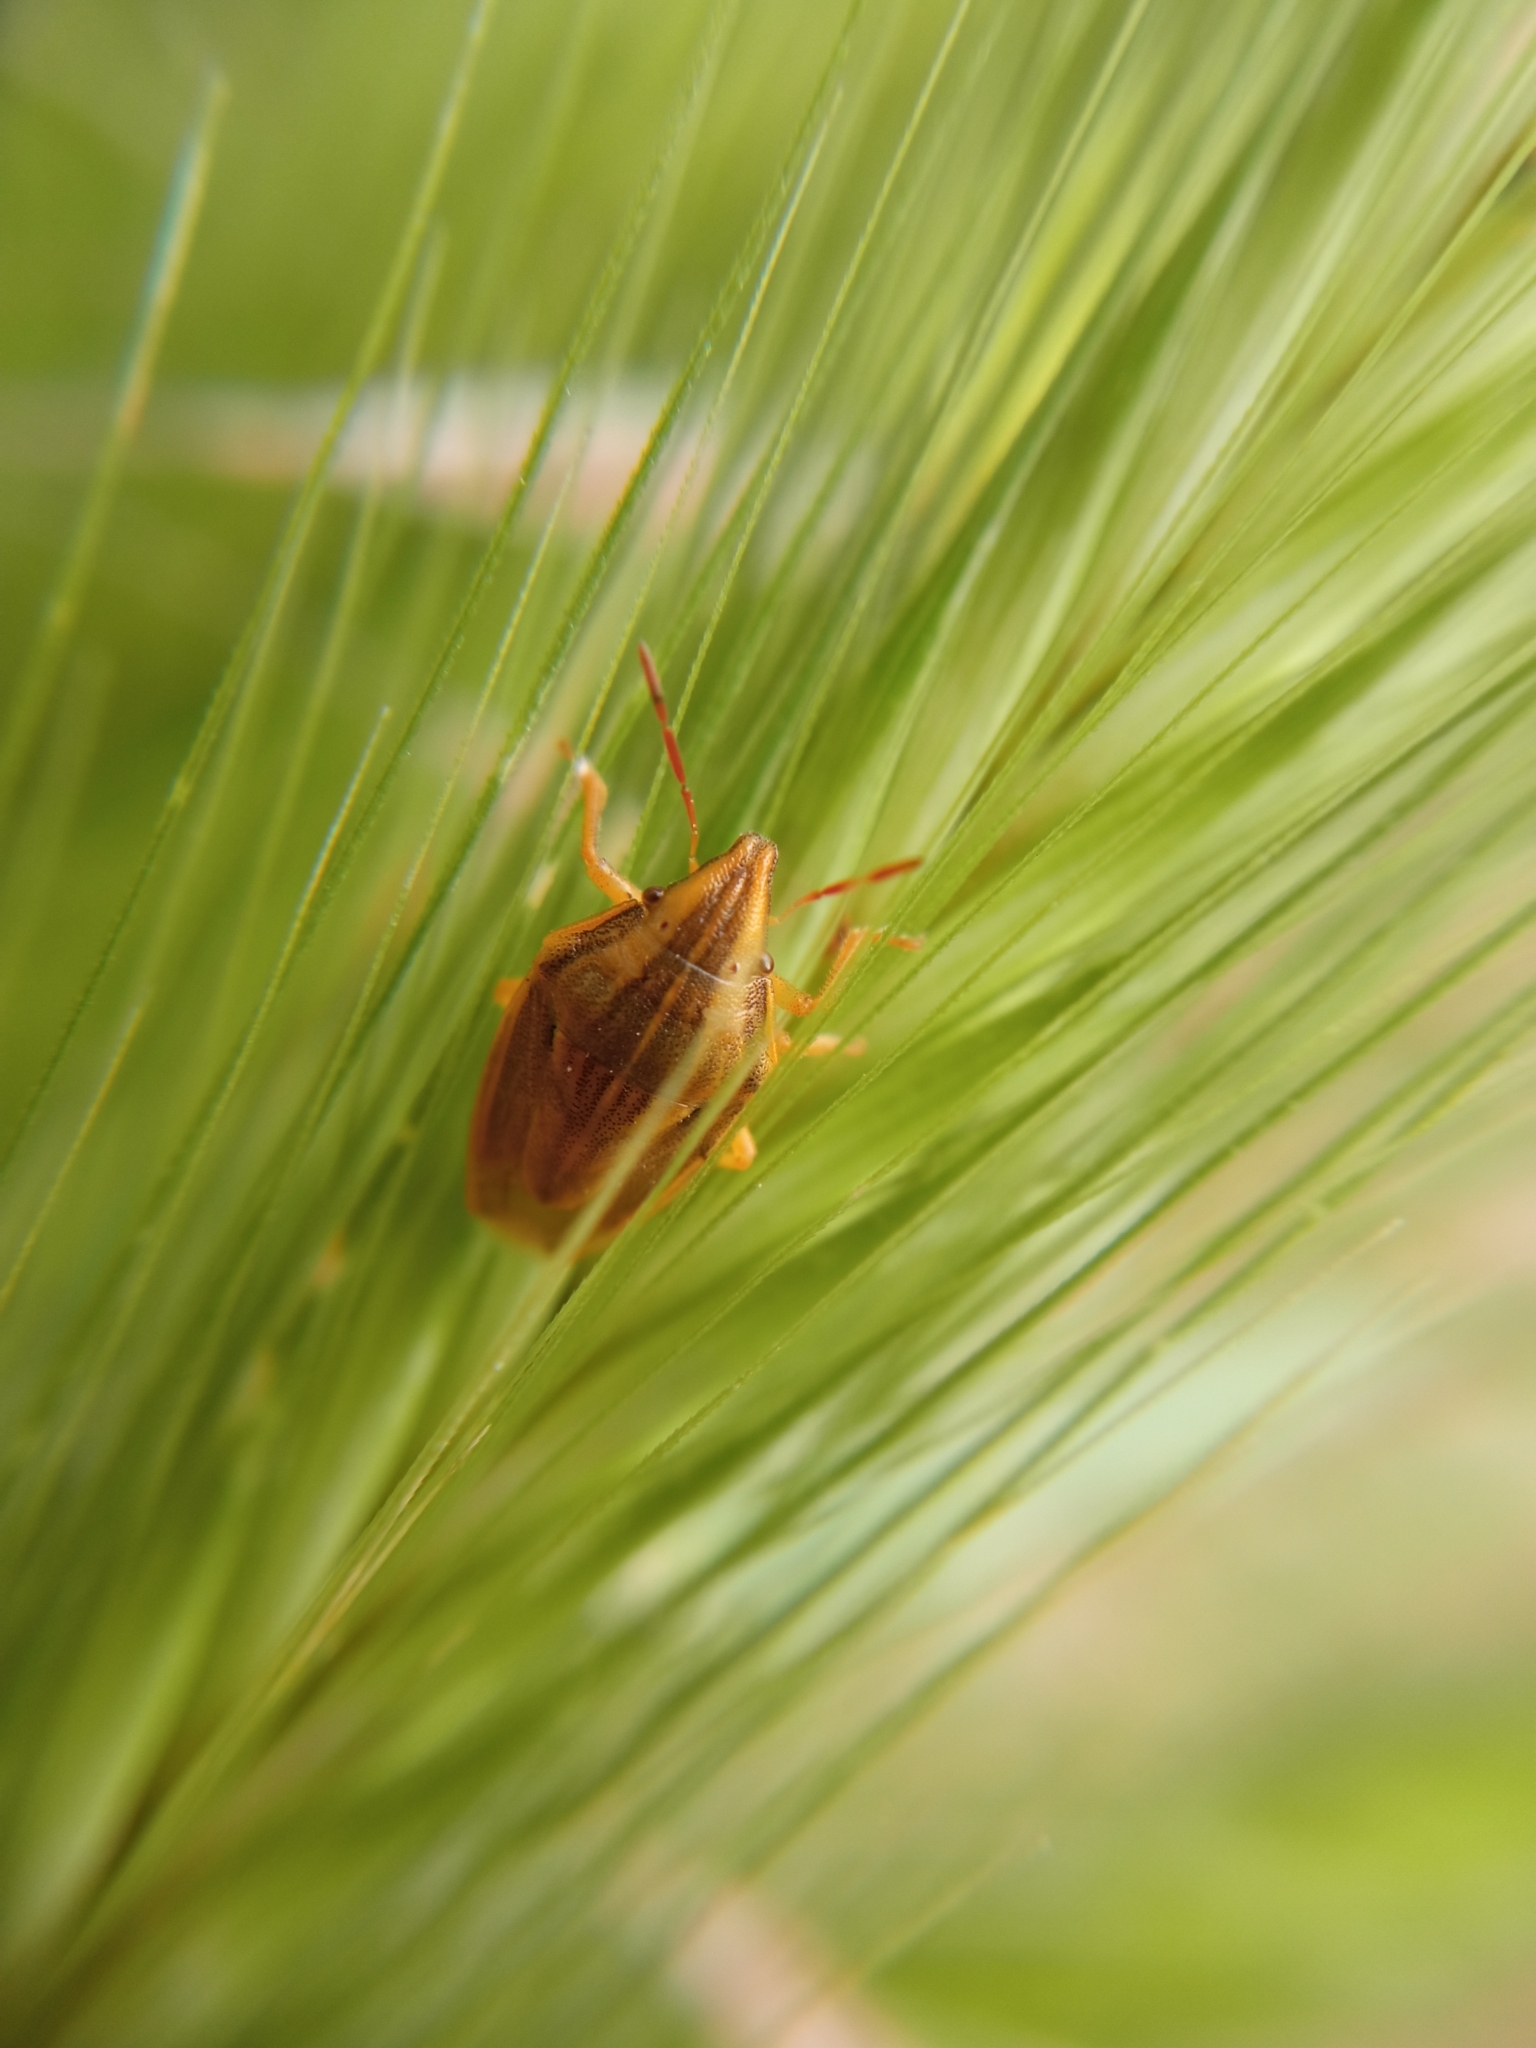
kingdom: Animalia
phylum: Arthropoda
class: Insecta
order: Hemiptera
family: Pentatomidae
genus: Aelia
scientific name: Aelia acuminata
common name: Bishop's mitre
